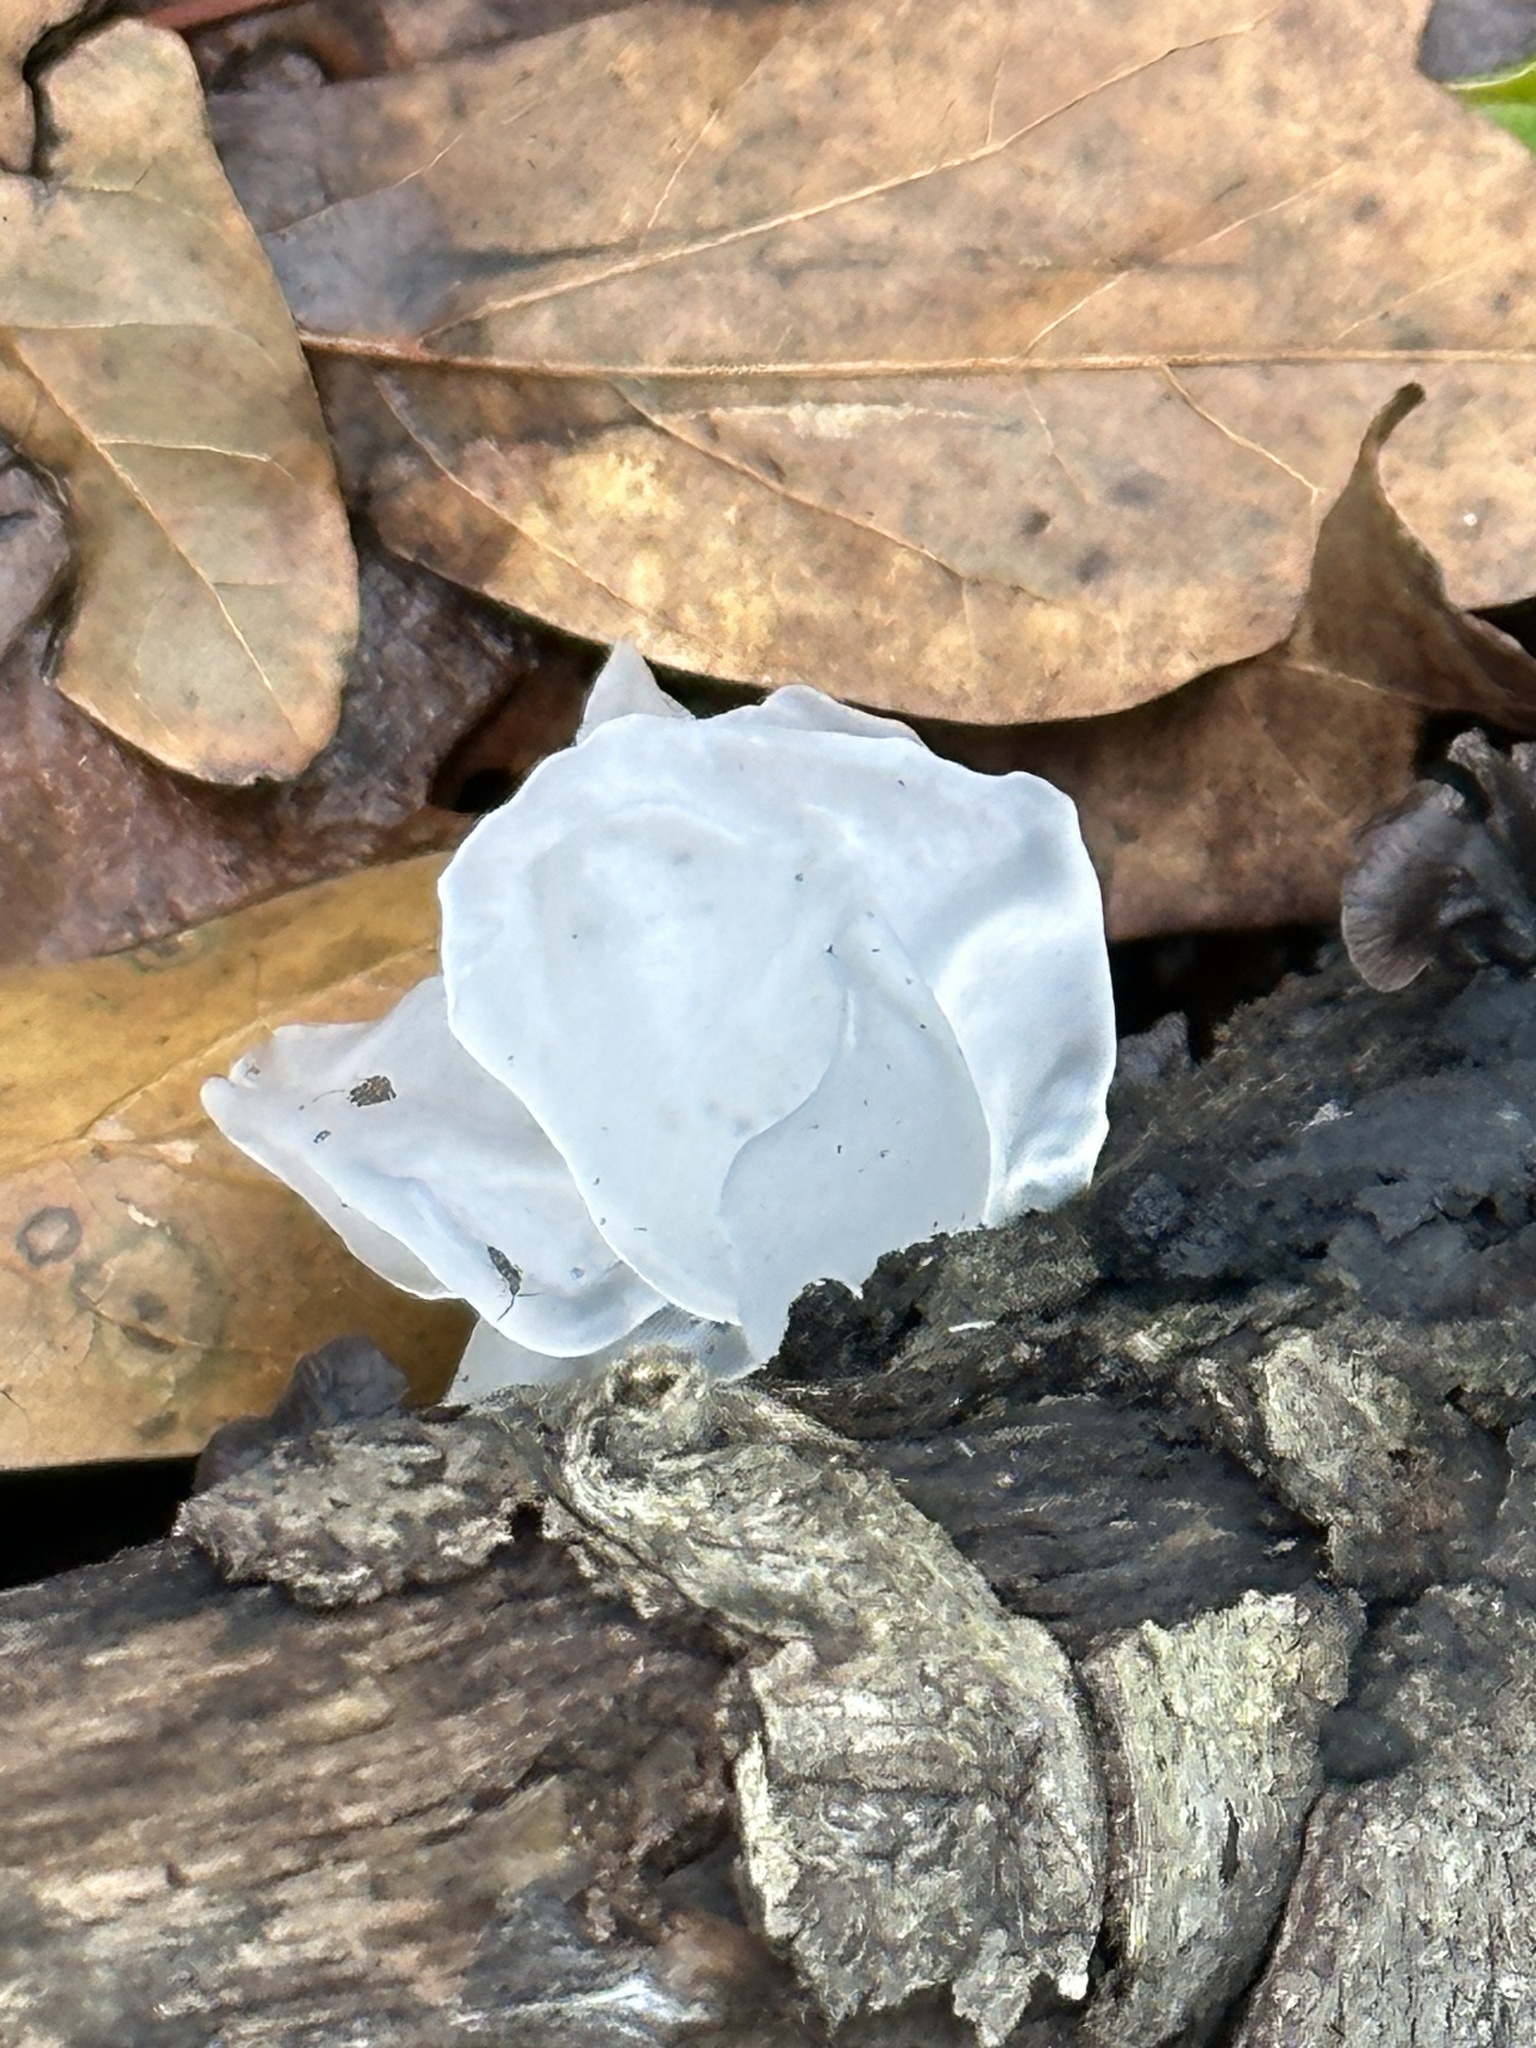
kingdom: Fungi
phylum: Basidiomycota
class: Tremellomycetes
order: Tremellales
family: Tremellaceae
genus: Tremella
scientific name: Tremella fuciformis
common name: Snow fungus
